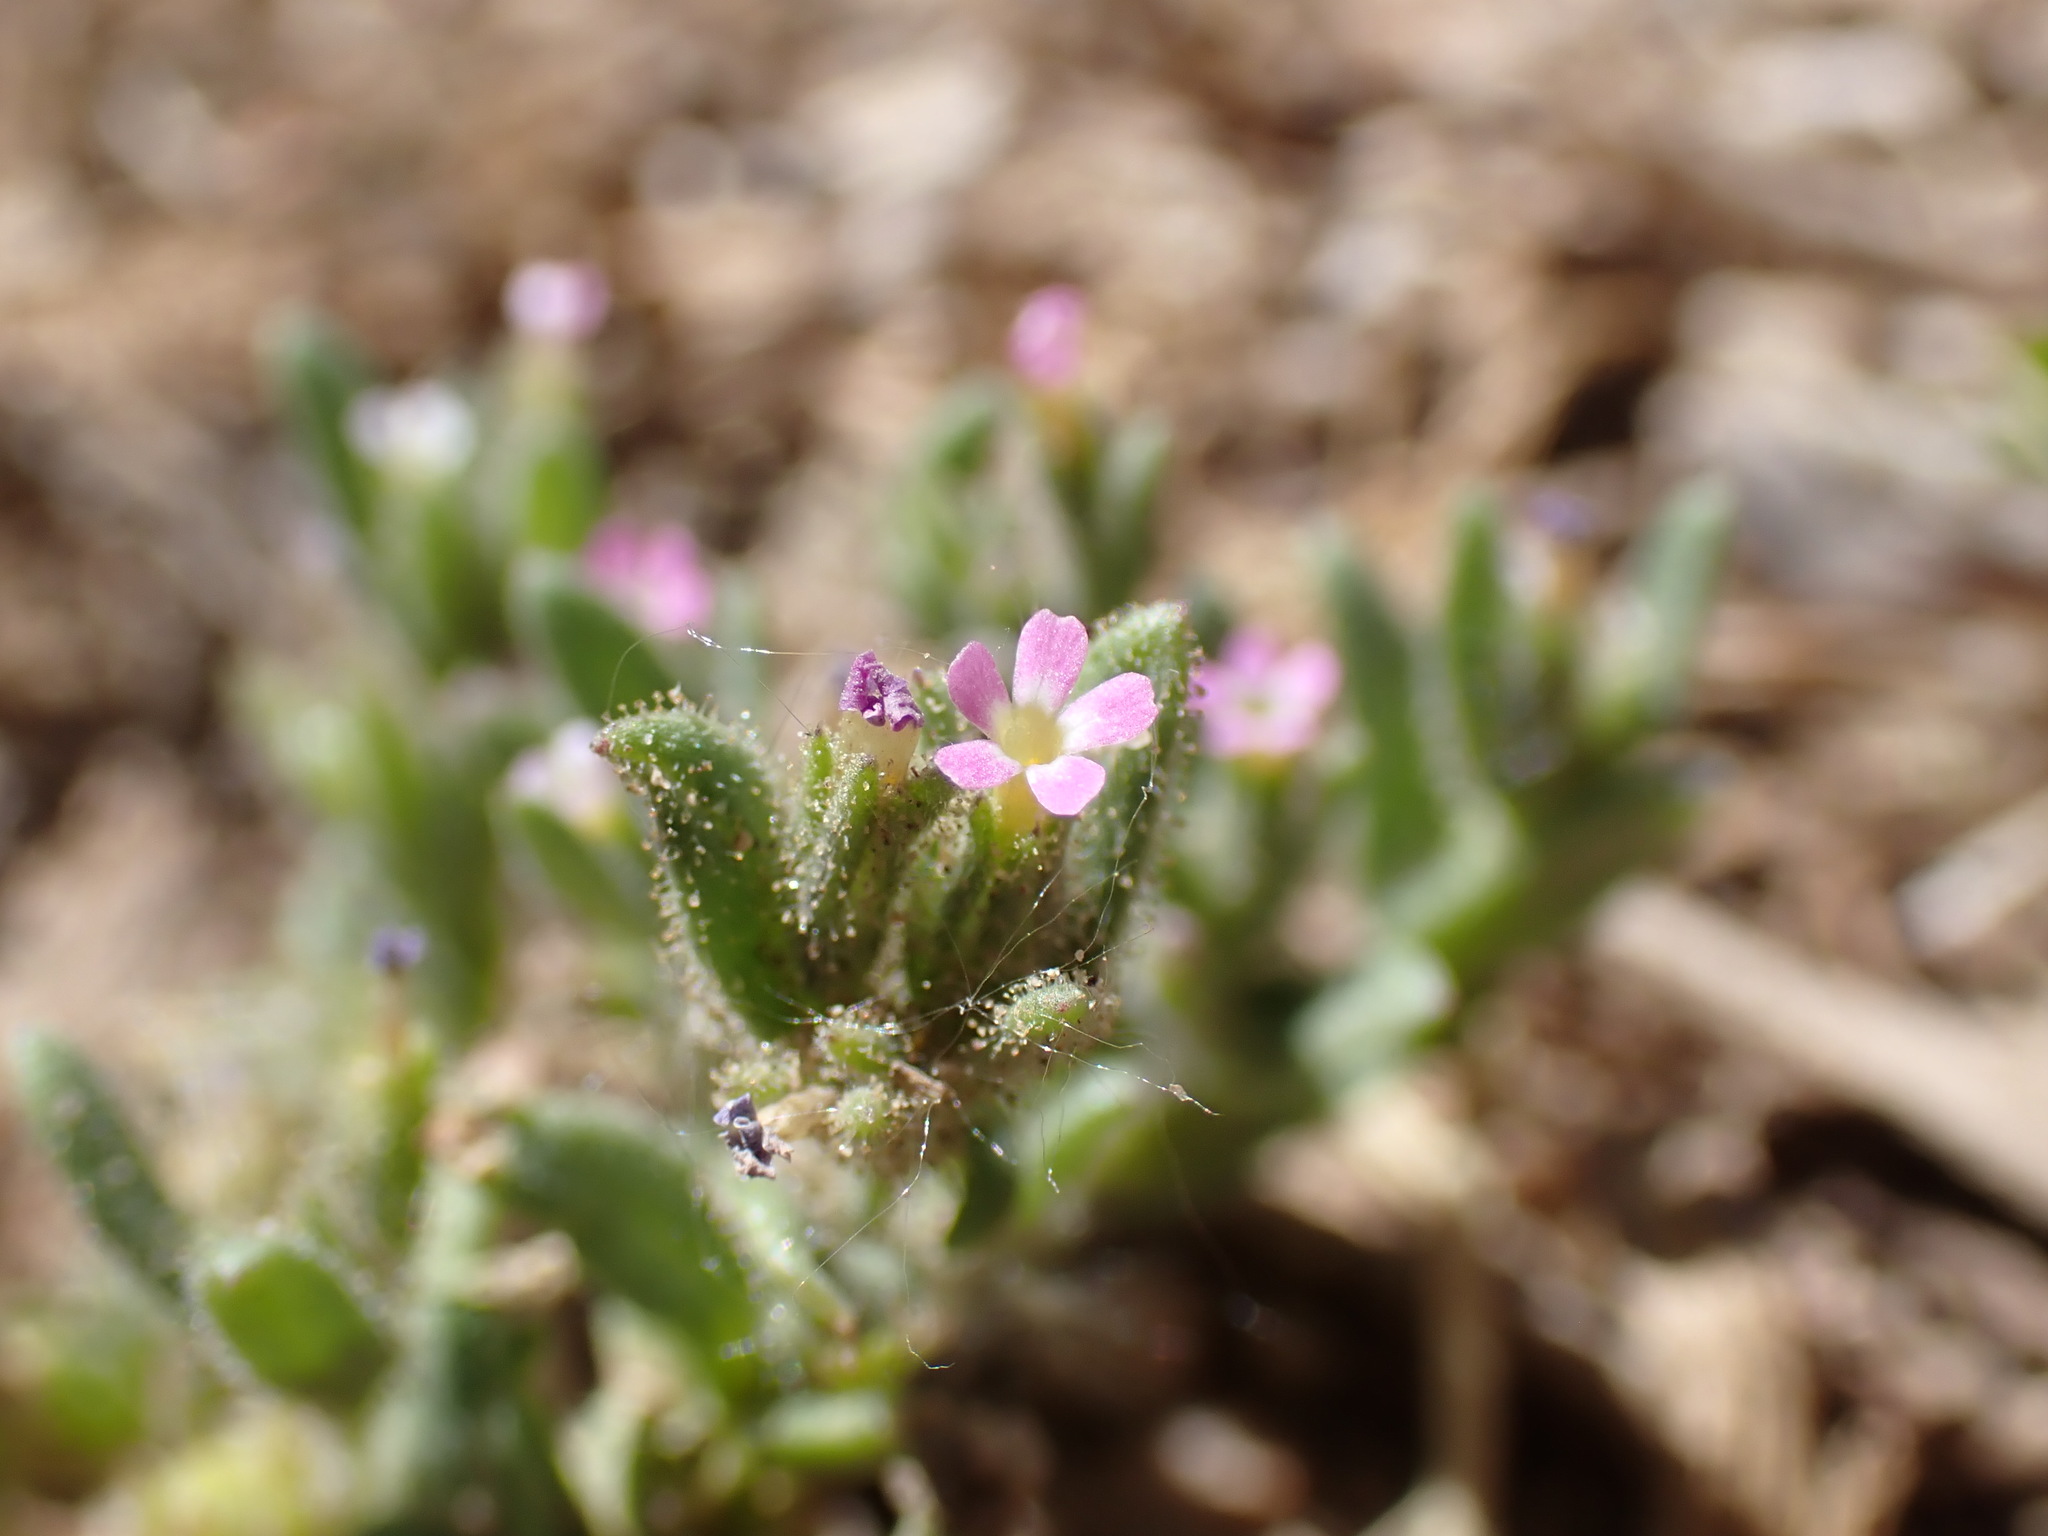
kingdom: Plantae
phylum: Tracheophyta
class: Magnoliopsida
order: Ericales
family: Polemoniaceae
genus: Phlox
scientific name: Phlox gracilis
